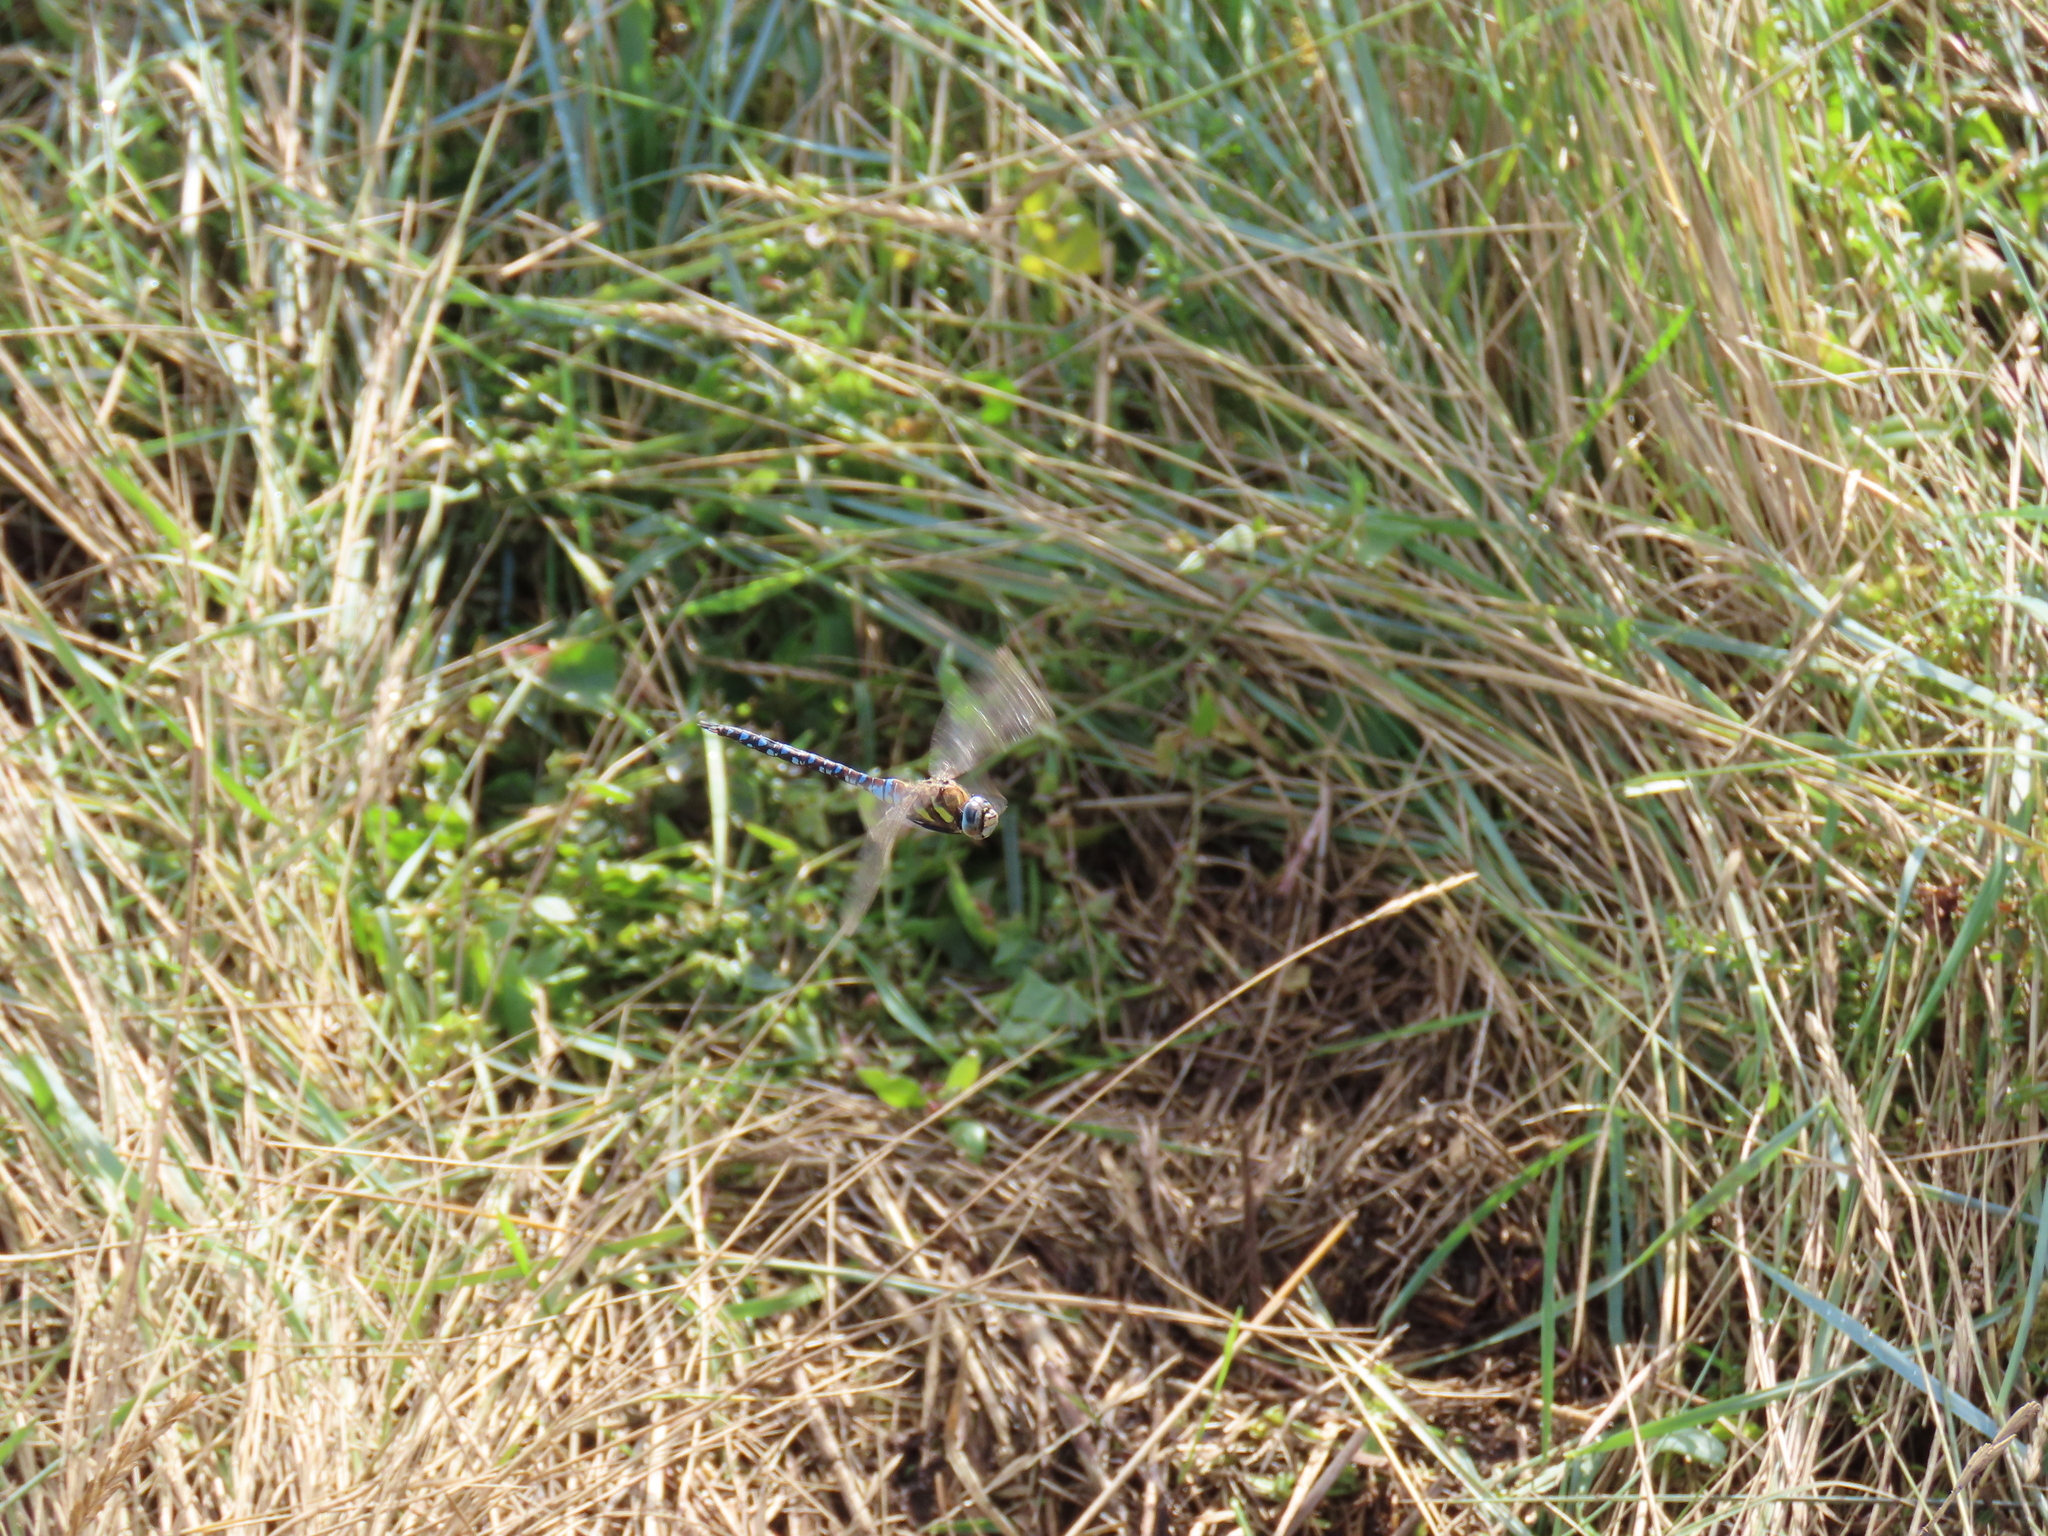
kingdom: Animalia
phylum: Arthropoda
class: Insecta
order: Odonata
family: Aeshnidae
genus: Aeshna
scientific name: Aeshna mixta
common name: Migrant hawker
